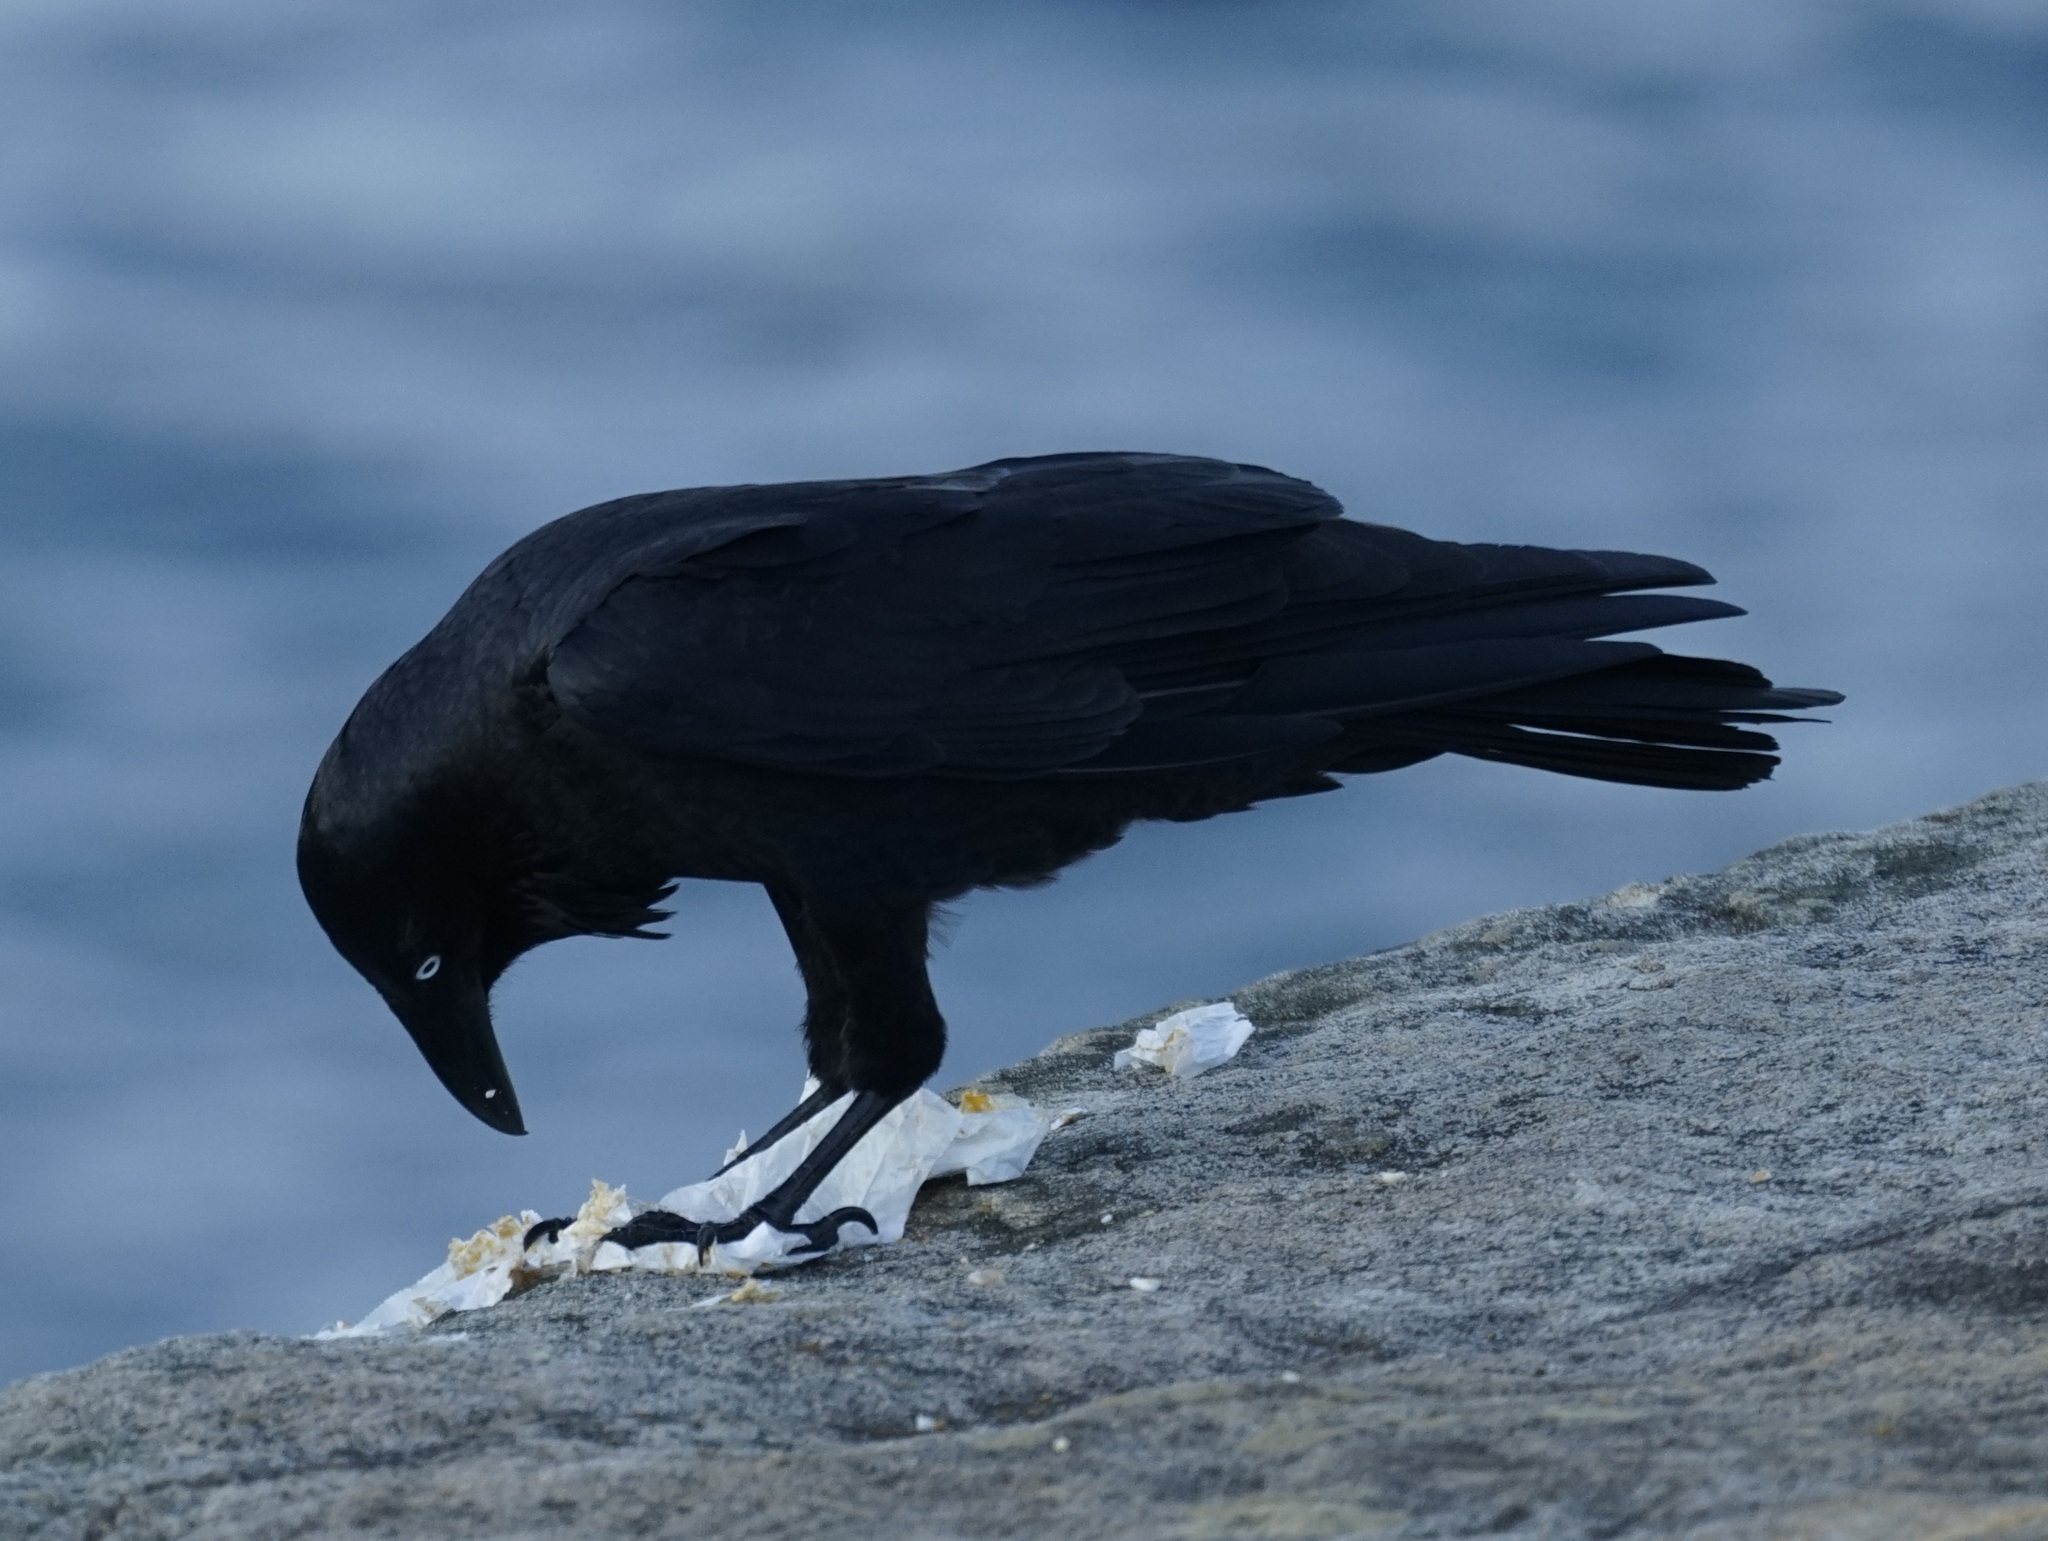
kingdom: Animalia
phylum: Chordata
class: Aves
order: Passeriformes
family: Corvidae
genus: Corvus
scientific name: Corvus coronoides
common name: Australian raven
